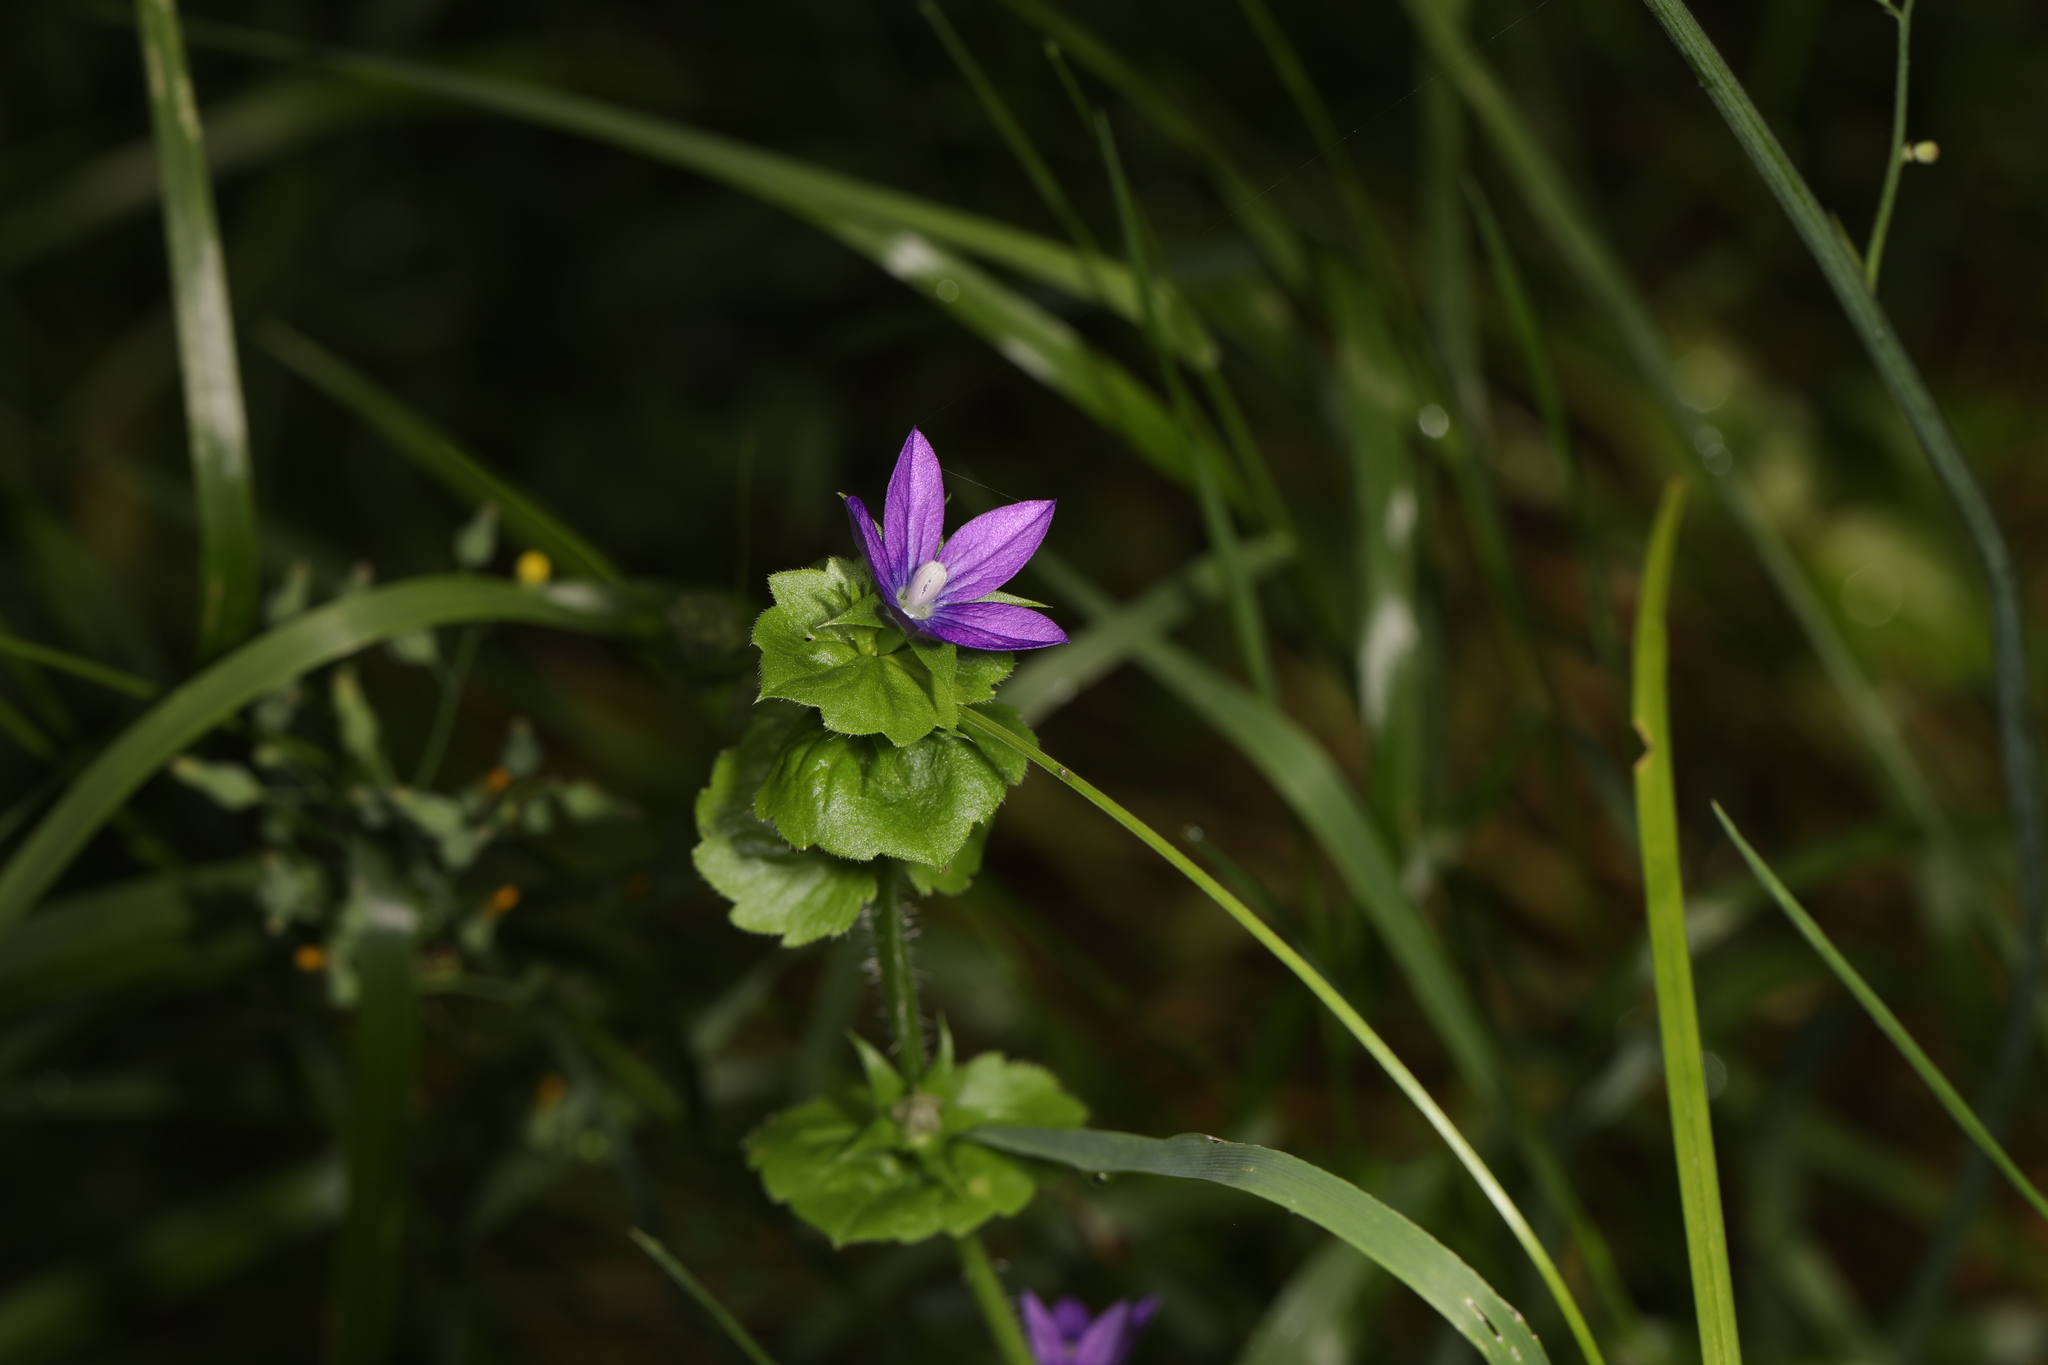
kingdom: Plantae
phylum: Tracheophyta
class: Magnoliopsida
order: Asterales
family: Campanulaceae
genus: Triodanis
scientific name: Triodanis perfoliata
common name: Clasping venus' looking-glass
